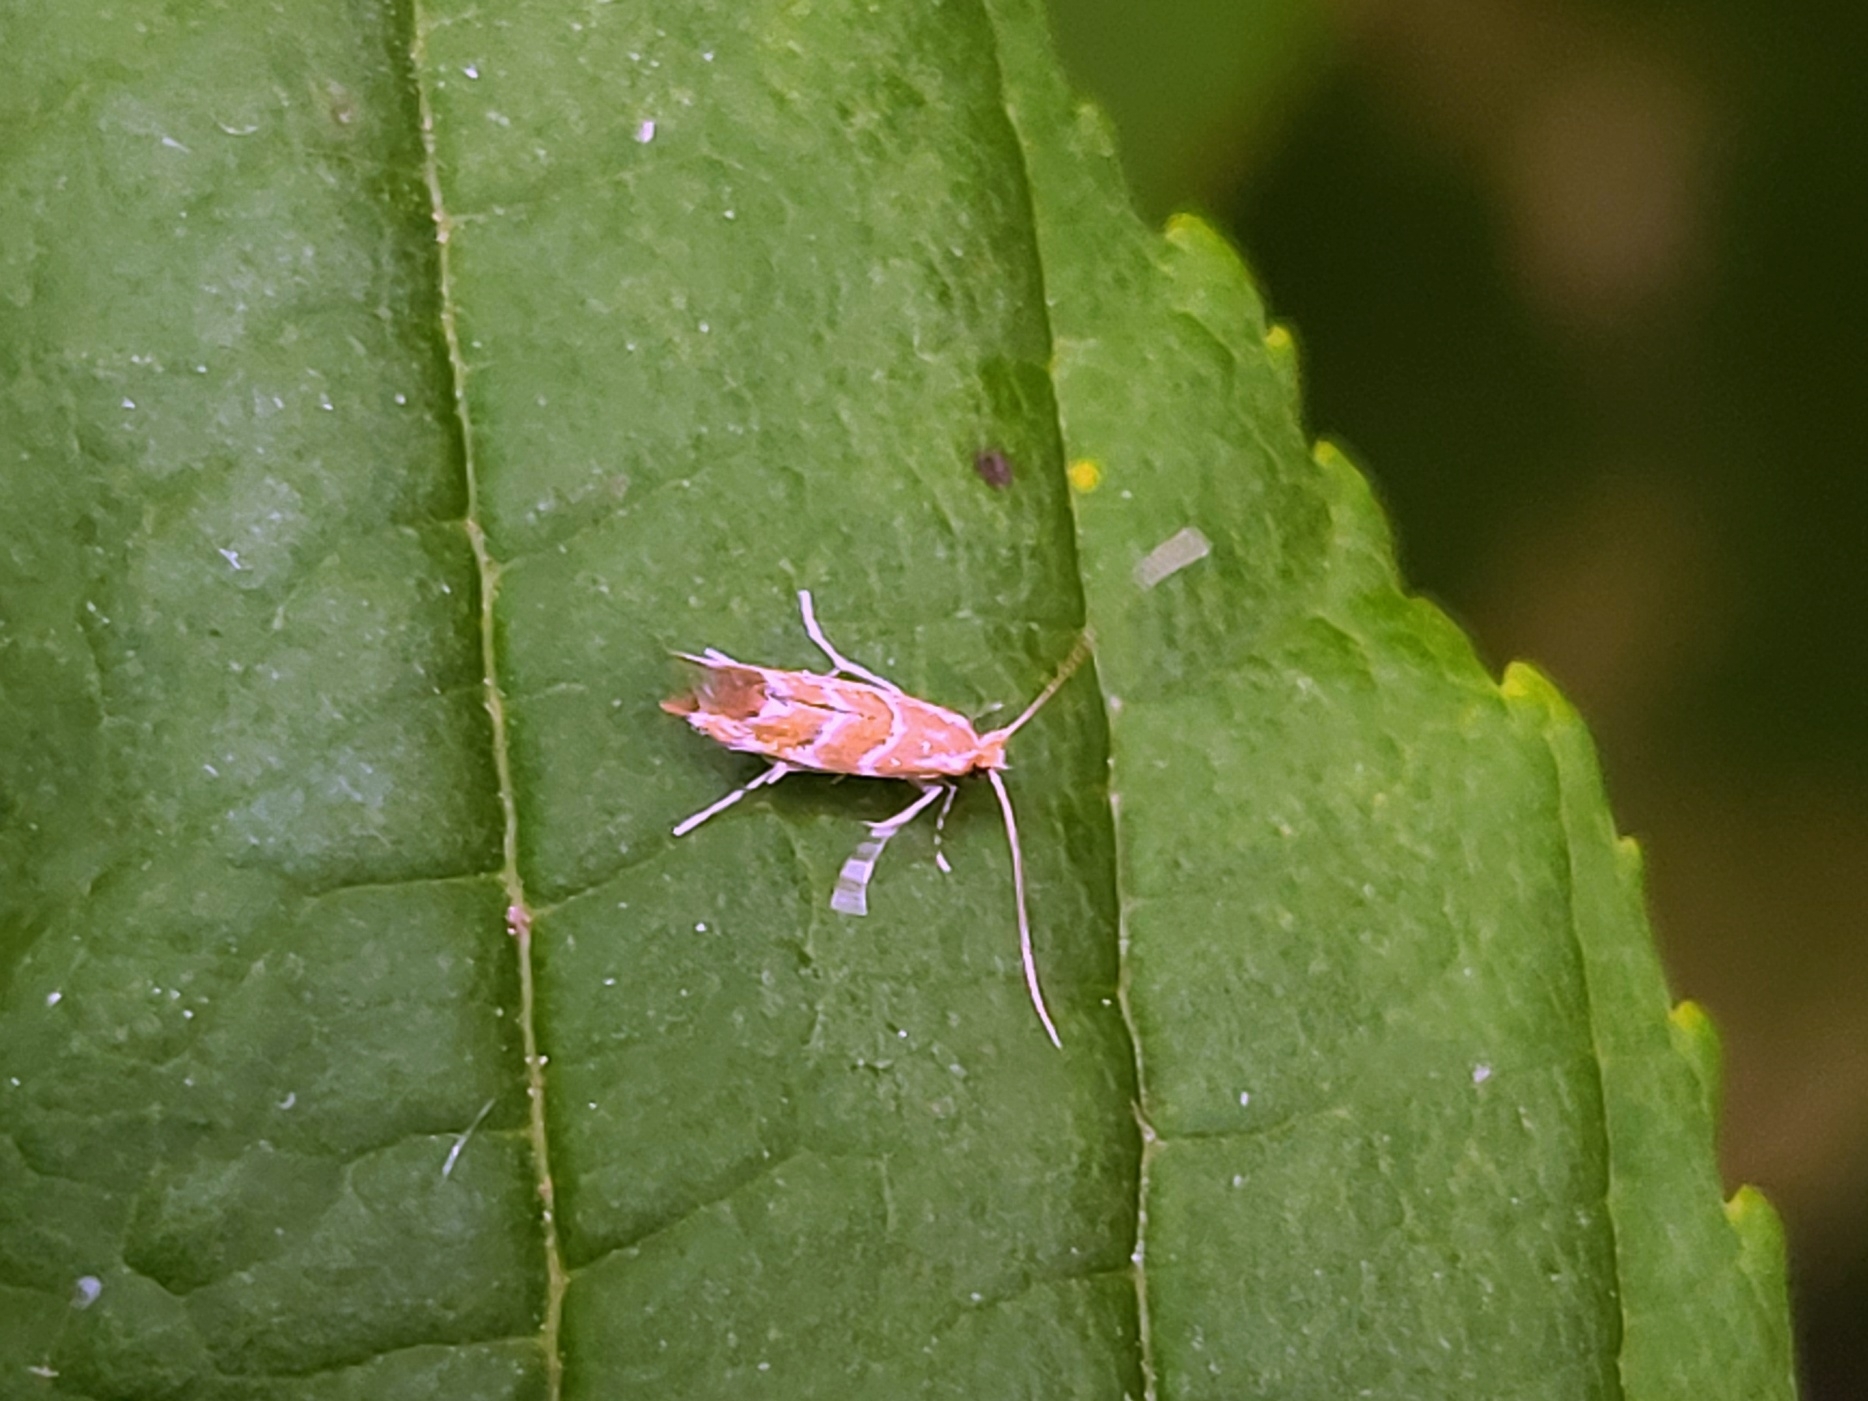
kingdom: Animalia
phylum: Arthropoda
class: Insecta
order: Lepidoptera
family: Gracillariidae
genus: Cameraria
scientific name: Cameraria ohridella
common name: Horse-chestnut leaf-miner
